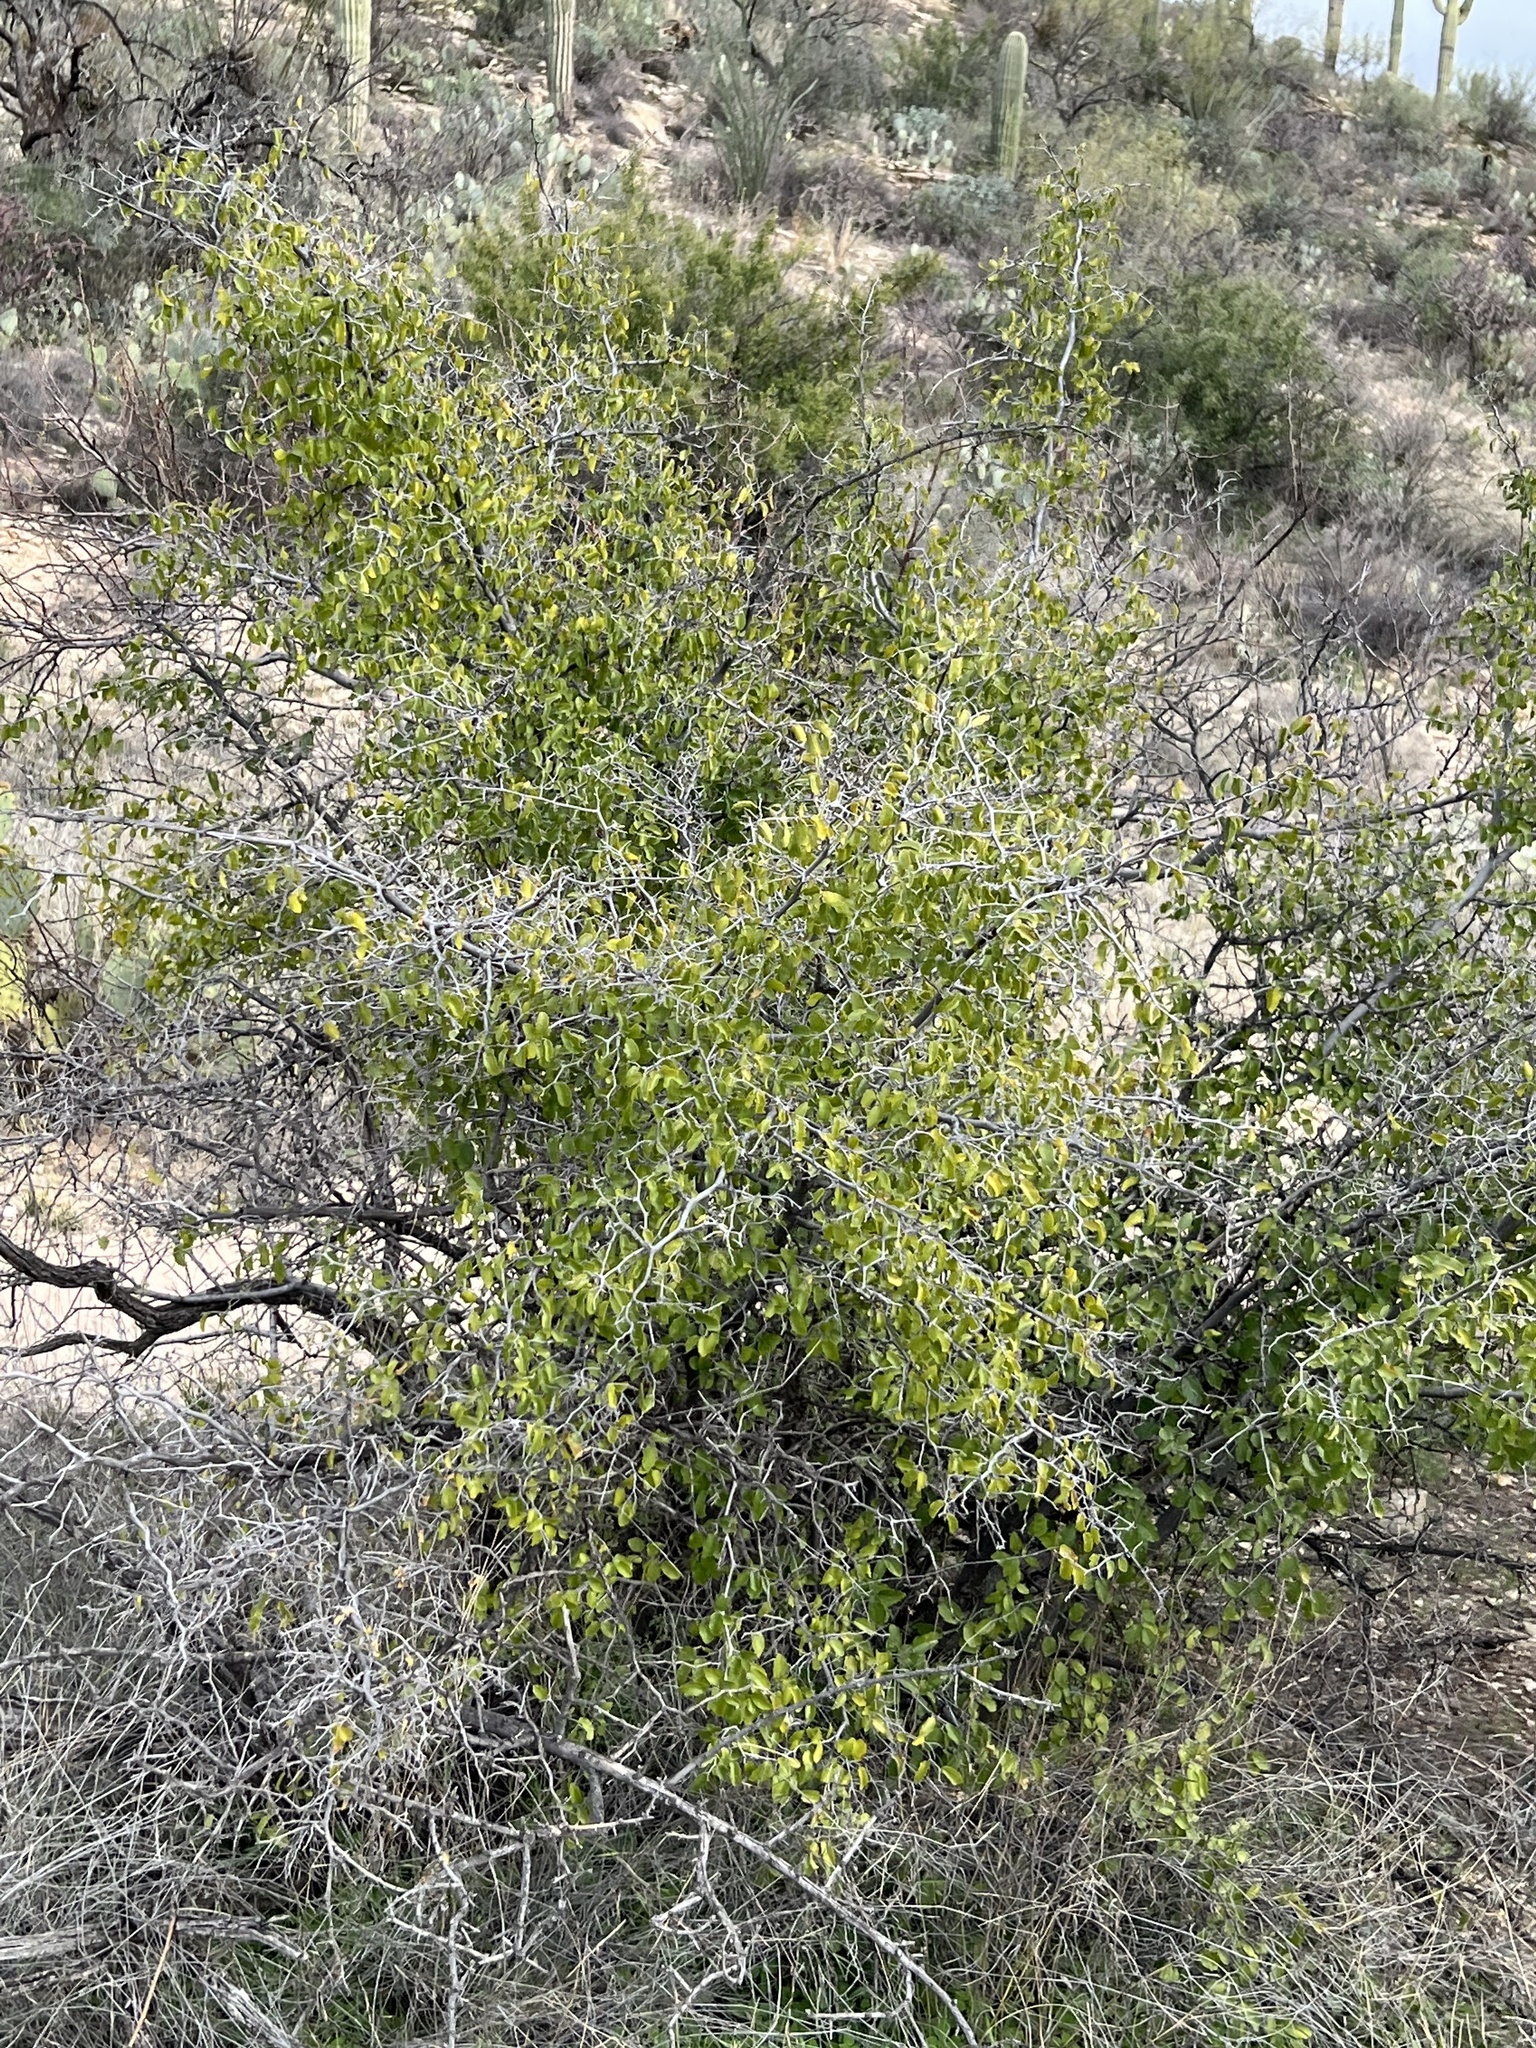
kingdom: Plantae
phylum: Tracheophyta
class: Magnoliopsida
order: Rosales
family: Cannabaceae
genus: Celtis
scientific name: Celtis pallida
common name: Desert hackberry
